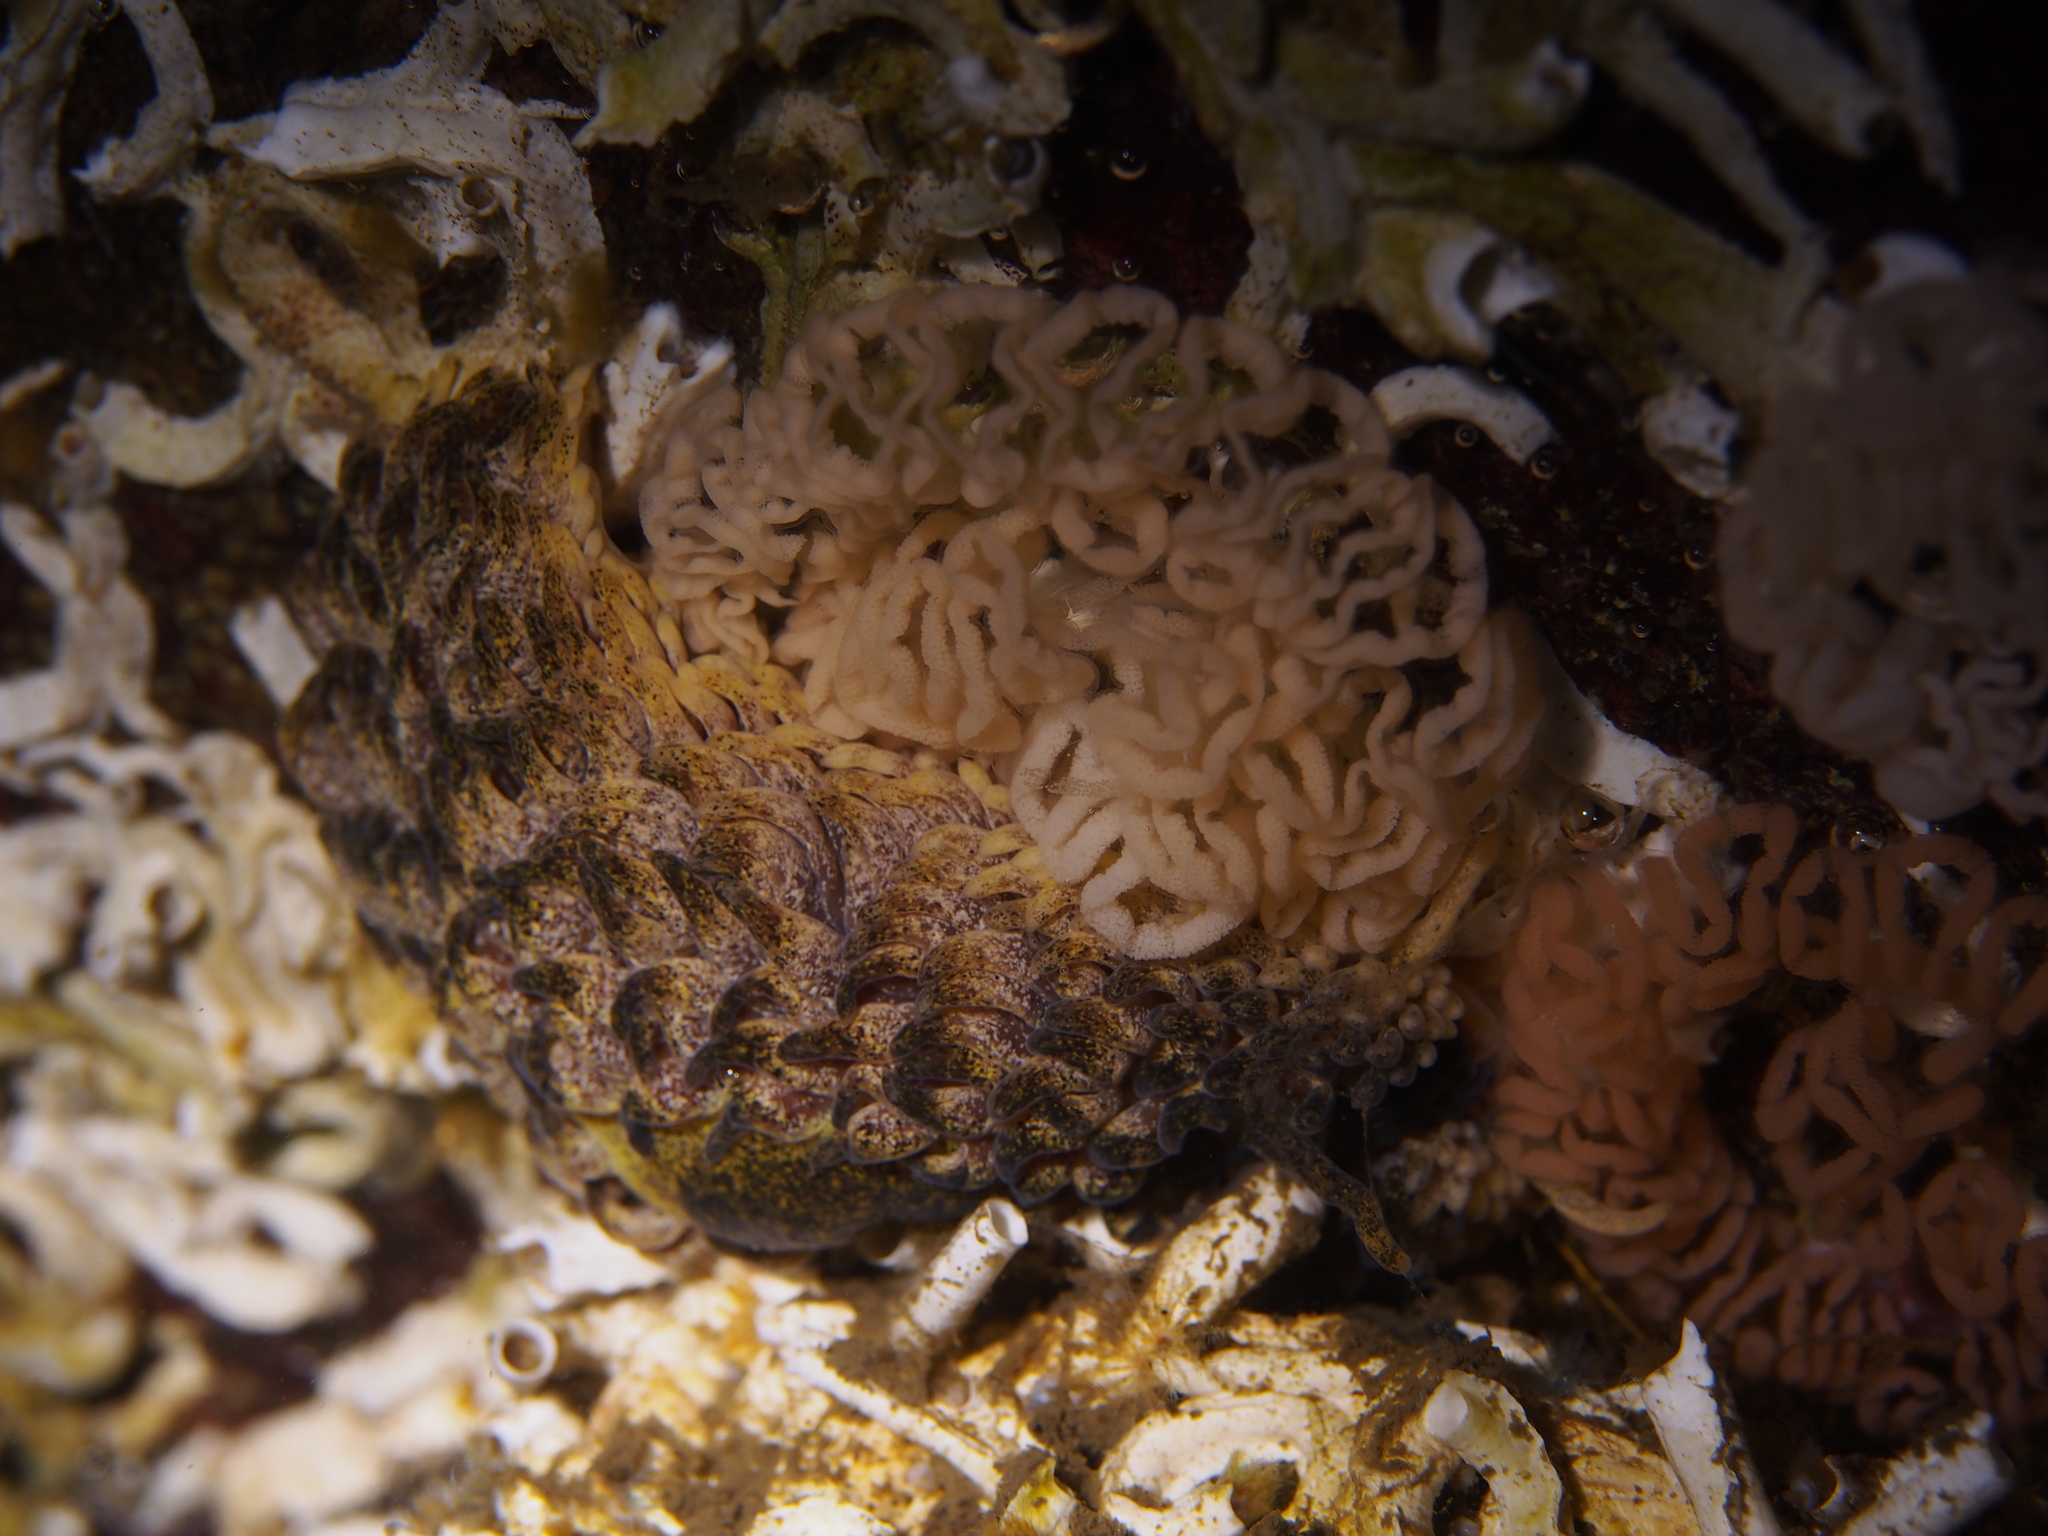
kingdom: Animalia
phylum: Mollusca
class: Gastropoda
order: Nudibranchia
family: Aeolidiidae
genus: Aeolidia
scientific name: Aeolidia papillosa
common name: Common grey sea slug
